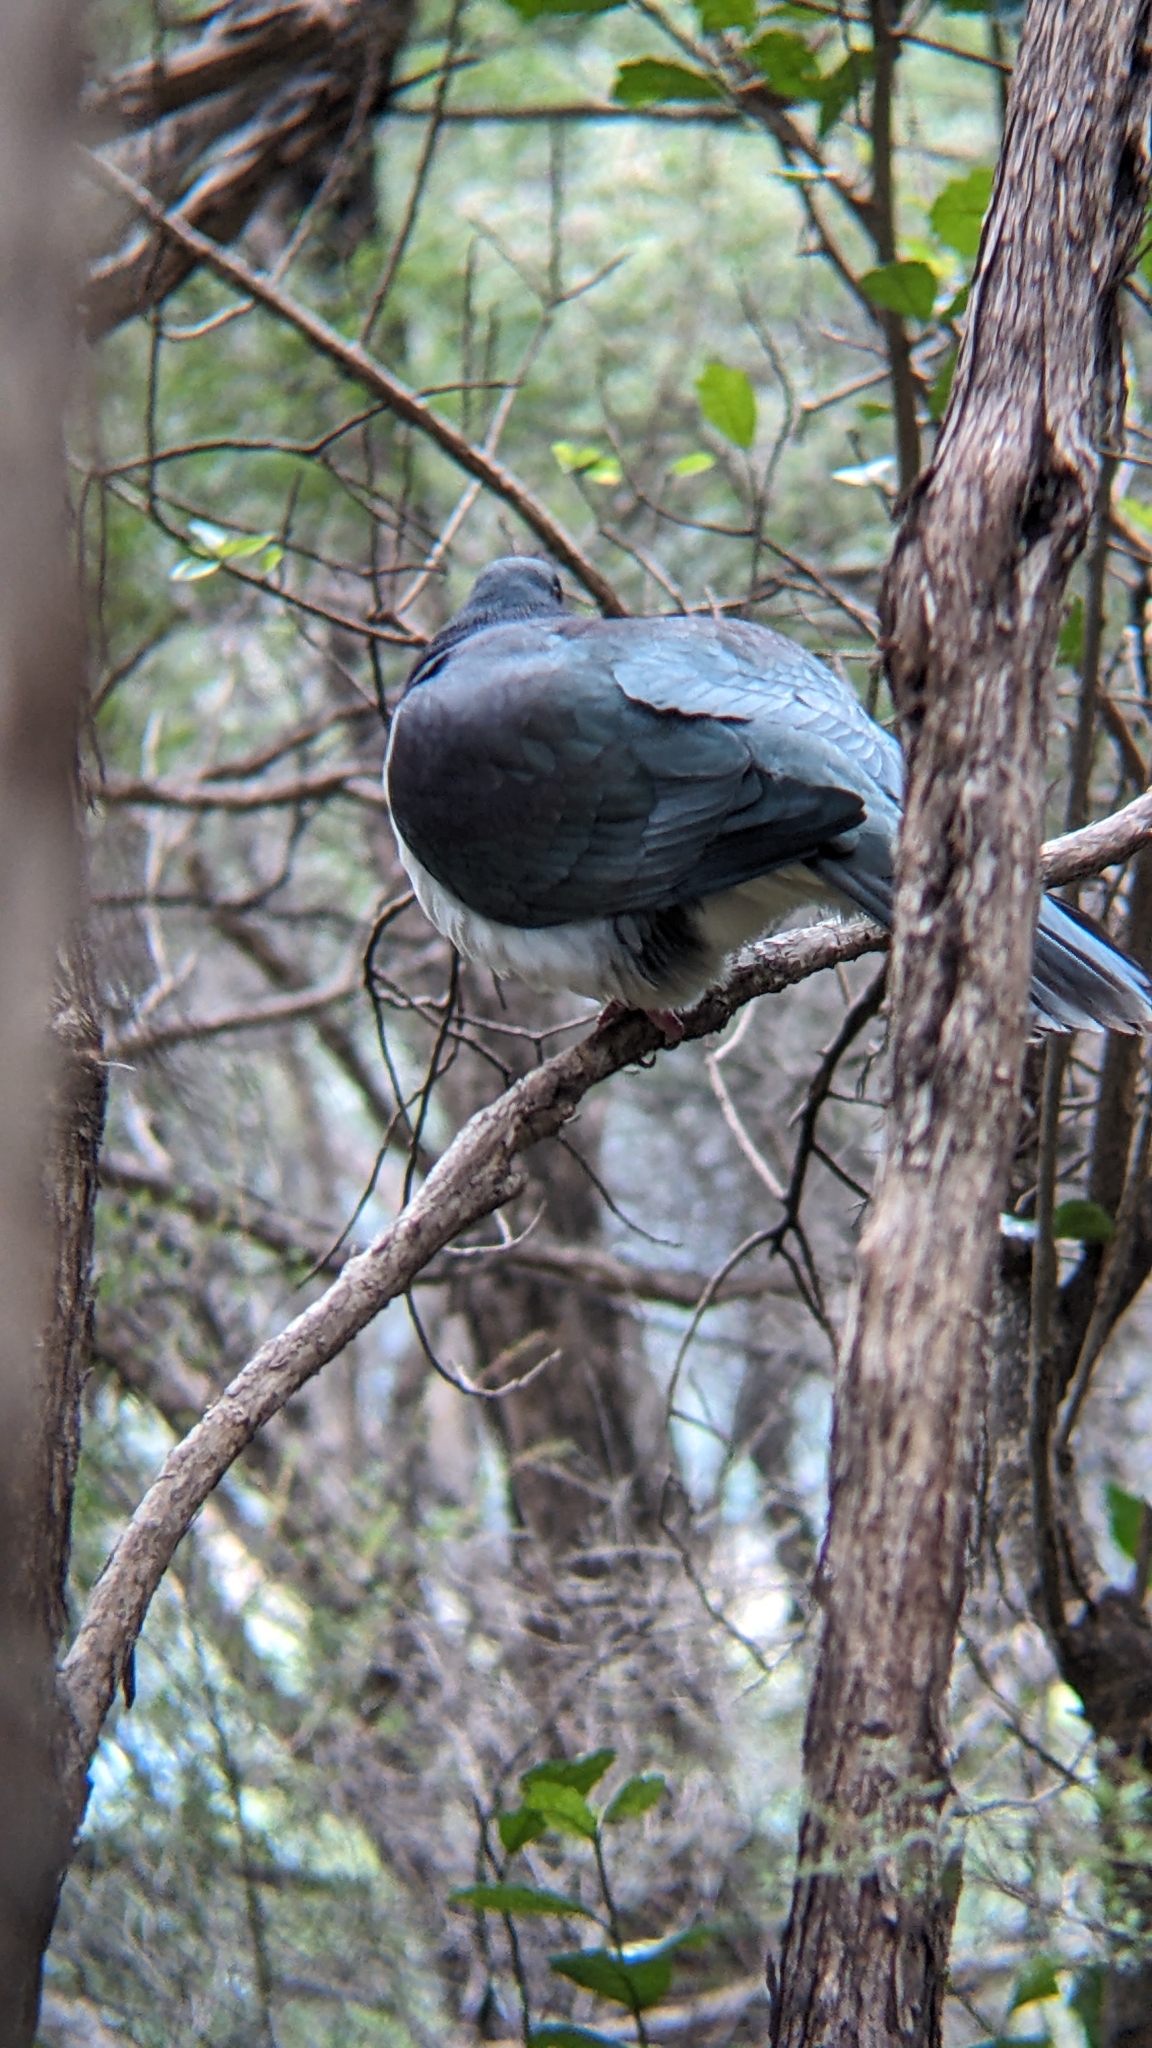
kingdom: Animalia
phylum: Chordata
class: Aves
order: Columbiformes
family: Columbidae
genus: Hemiphaga
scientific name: Hemiphaga novaeseelandiae
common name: New zealand pigeon
